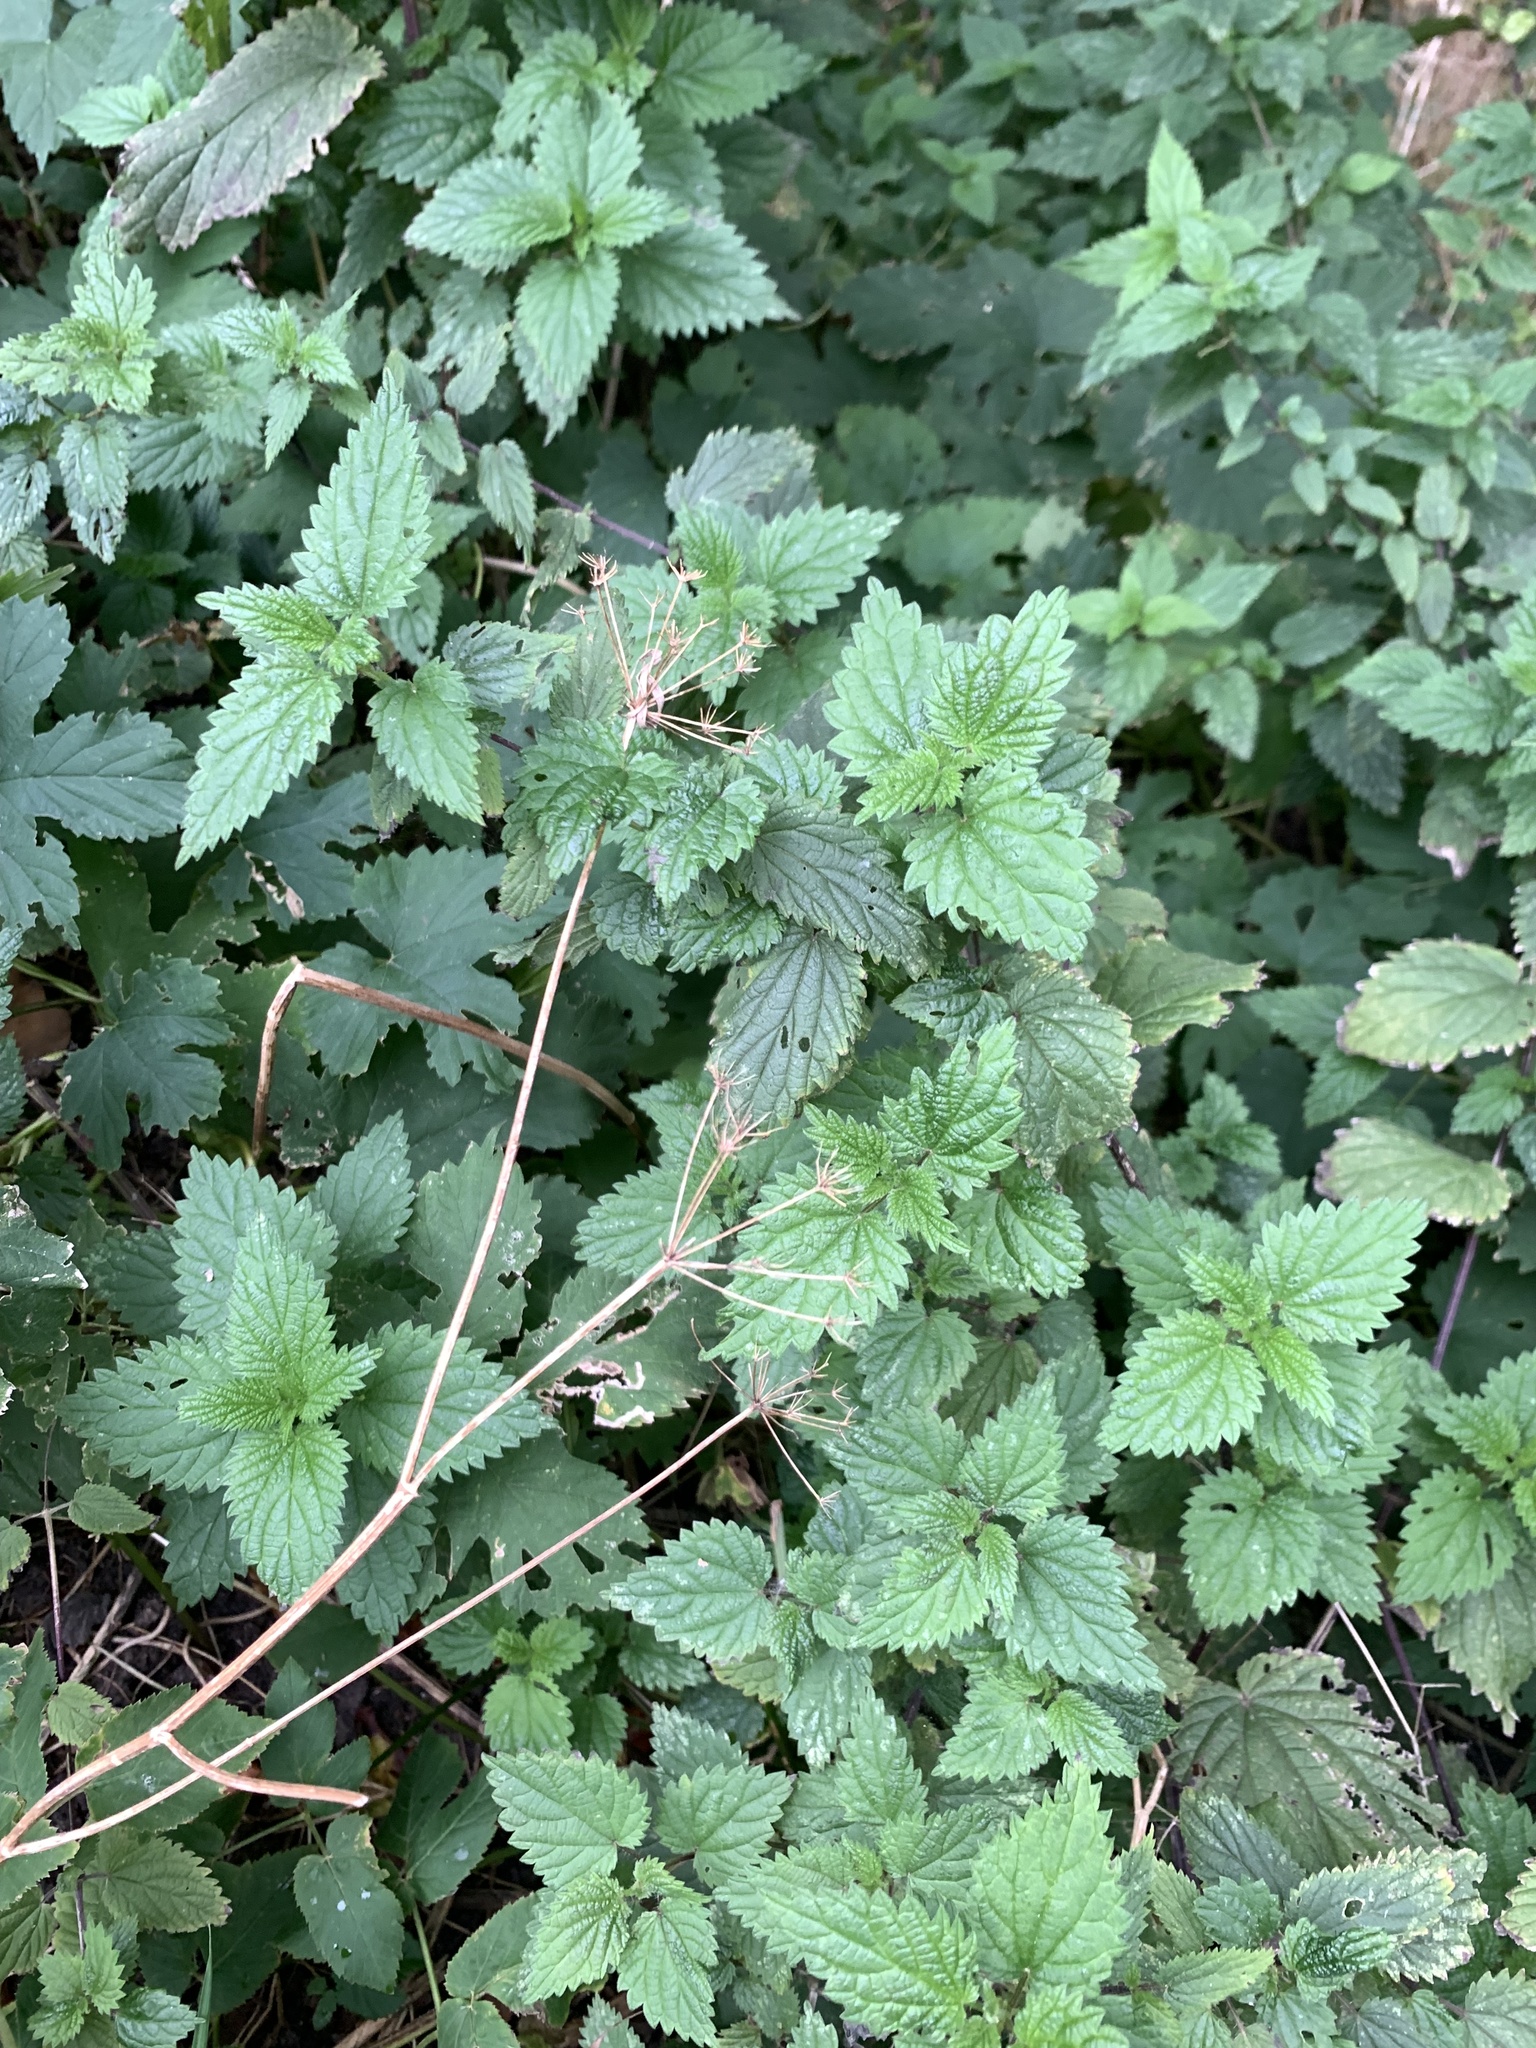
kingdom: Plantae
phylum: Tracheophyta
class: Magnoliopsida
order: Rosales
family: Urticaceae
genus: Urtica
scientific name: Urtica dioica
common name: Common nettle
